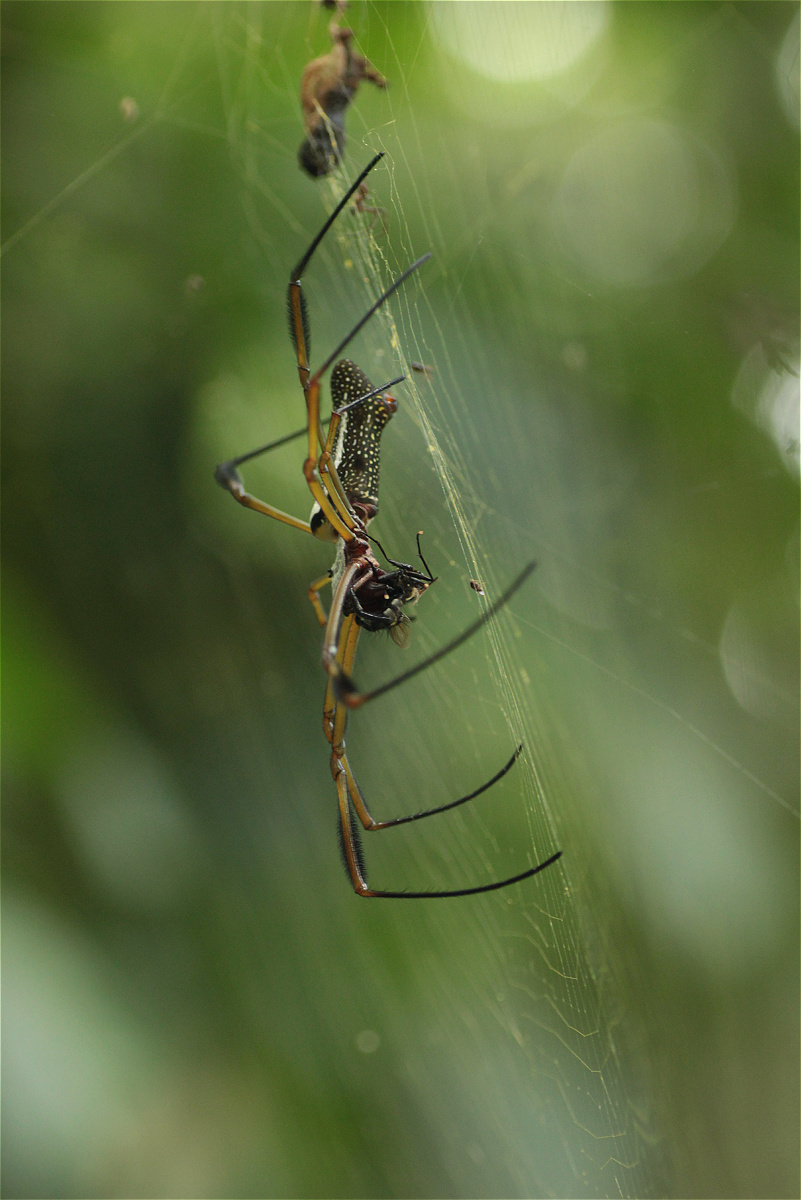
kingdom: Animalia
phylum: Arthropoda
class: Arachnida
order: Araneae
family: Araneidae
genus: Trichonephila
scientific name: Trichonephila clavipes
